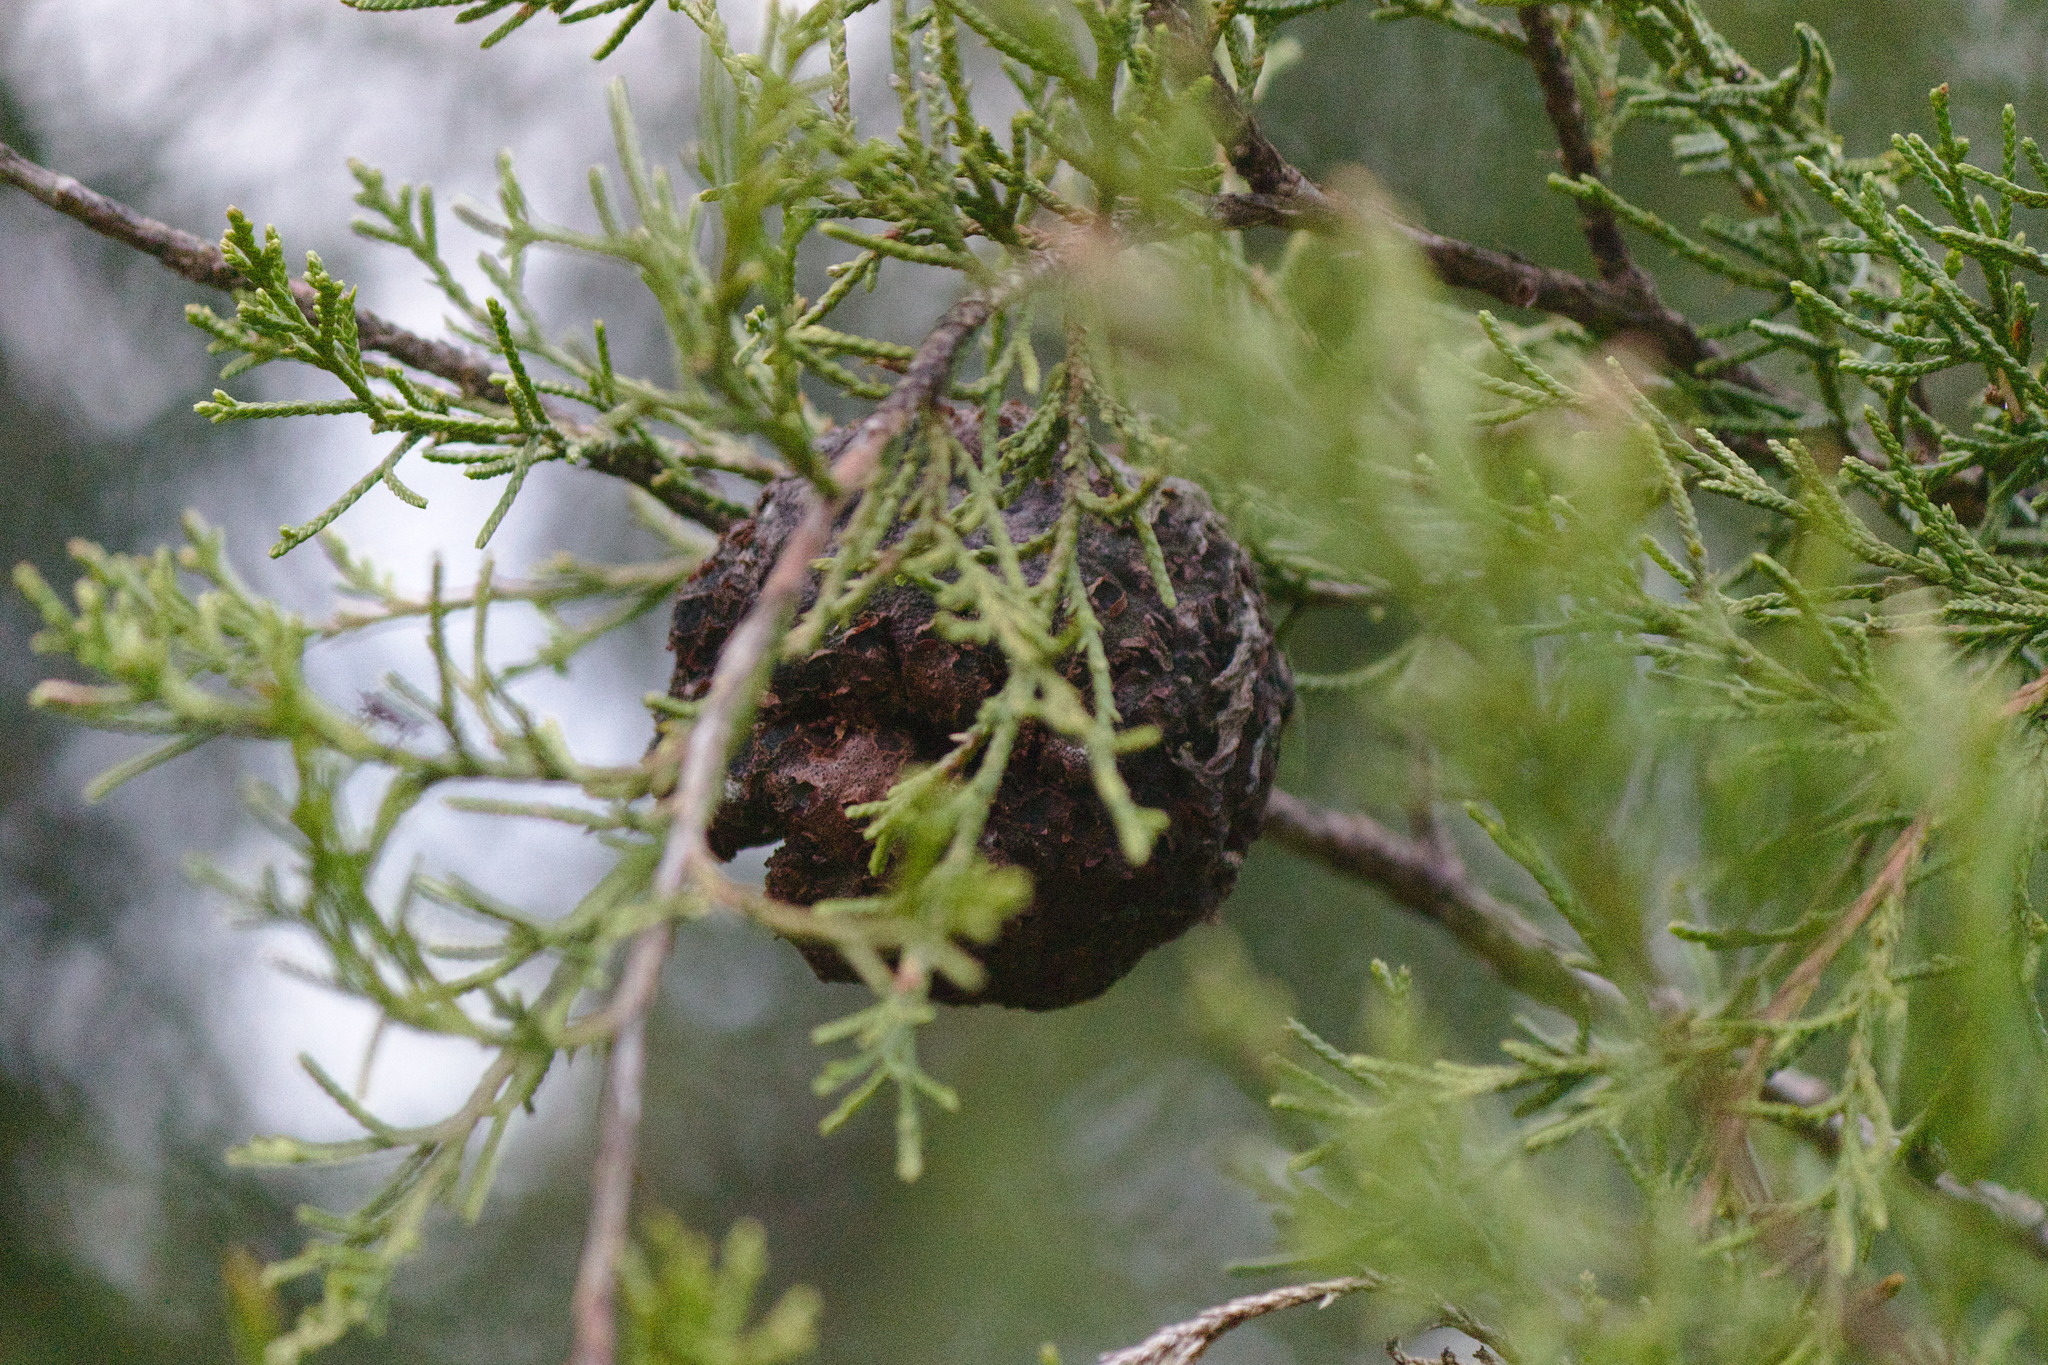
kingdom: Fungi
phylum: Basidiomycota
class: Pucciniomycetes
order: Pucciniales
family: Gymnosporangiaceae
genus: Gymnosporangium
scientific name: Gymnosporangium juniperi-virginianae
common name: Juniper-apple rust
